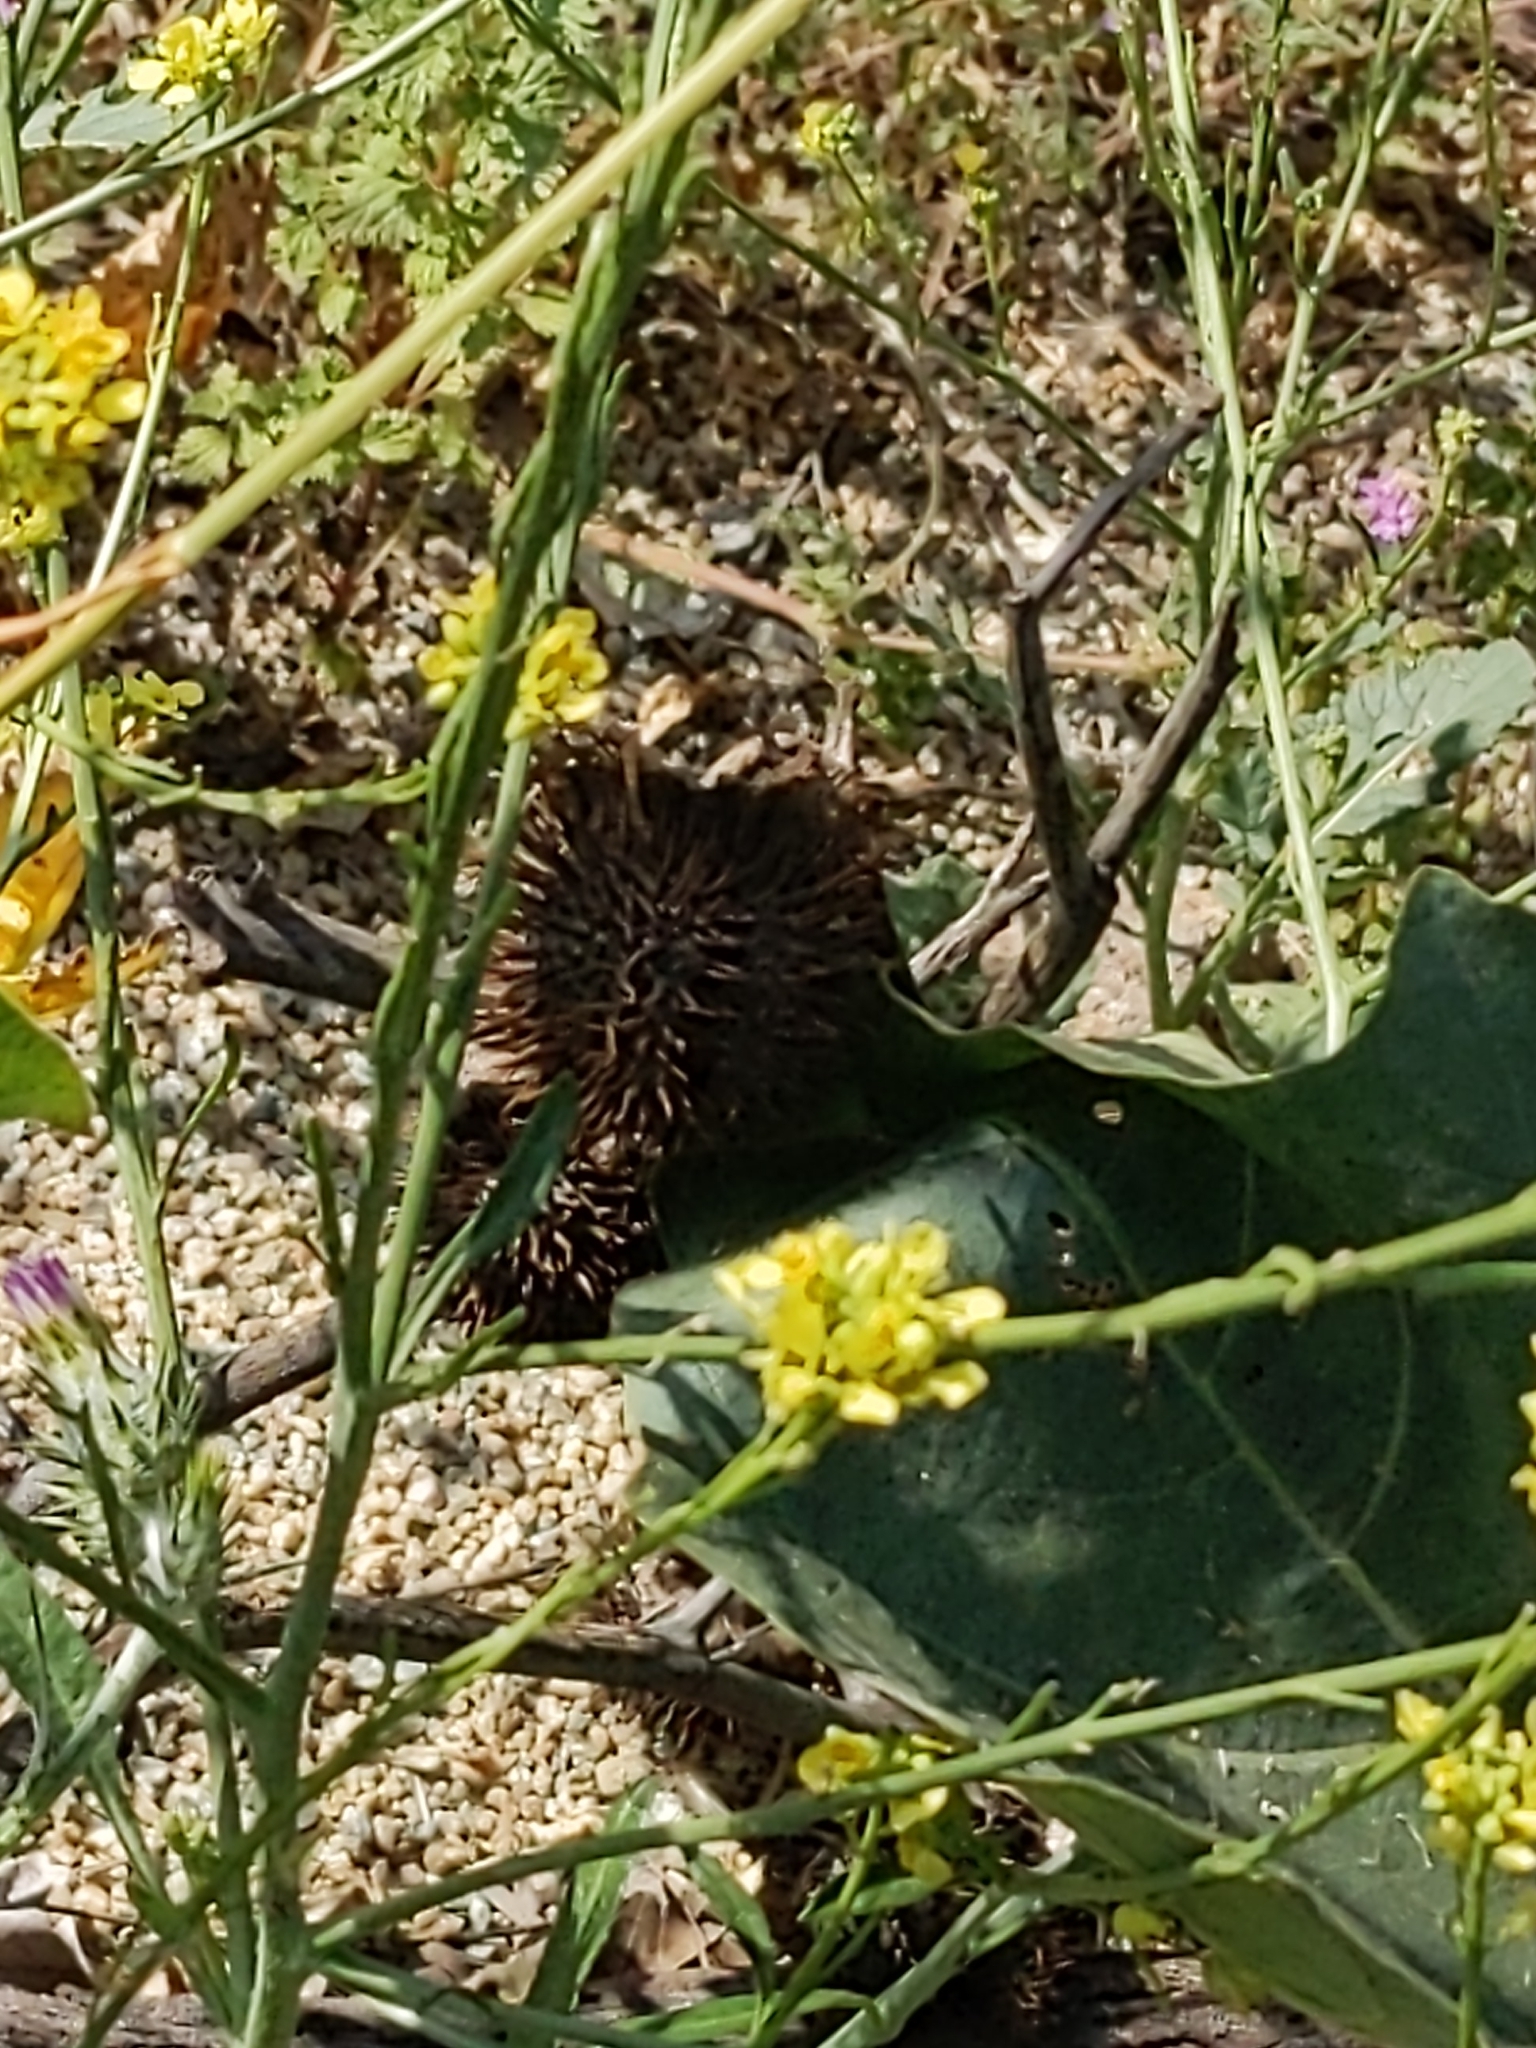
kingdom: Plantae
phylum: Tracheophyta
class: Magnoliopsida
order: Solanales
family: Solanaceae
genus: Datura
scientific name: Datura wrightii
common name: Sacred thorn-apple
